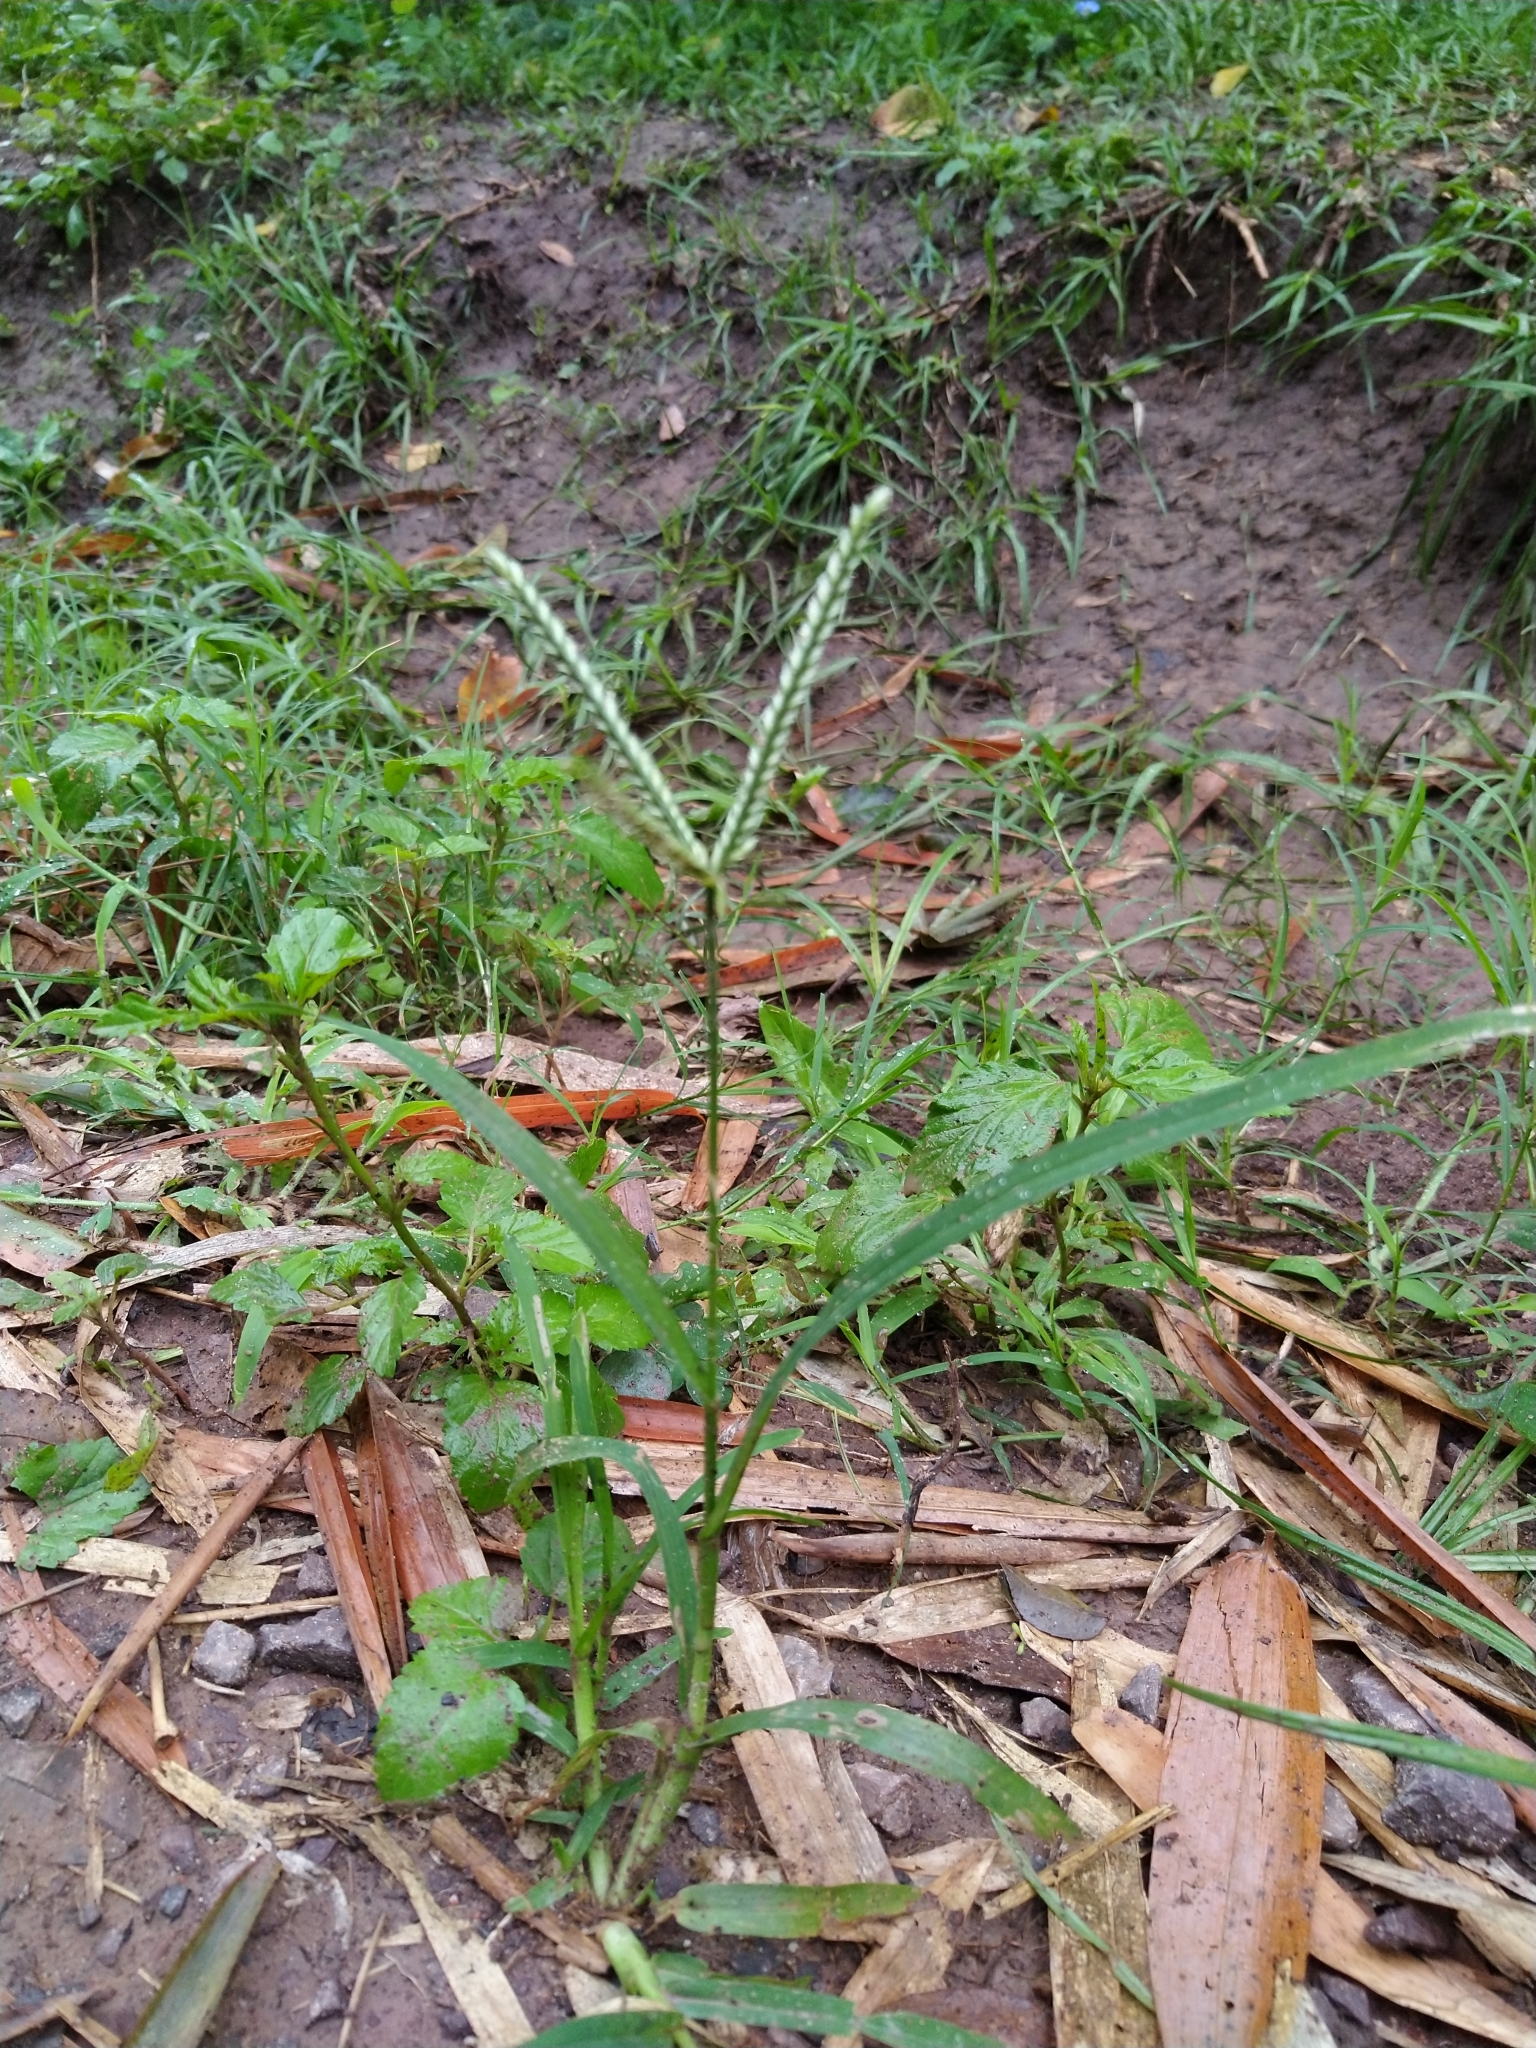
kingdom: Plantae
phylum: Tracheophyta
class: Liliopsida
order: Poales
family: Poaceae
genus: Eleusine
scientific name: Eleusine indica
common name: Yard-grass
